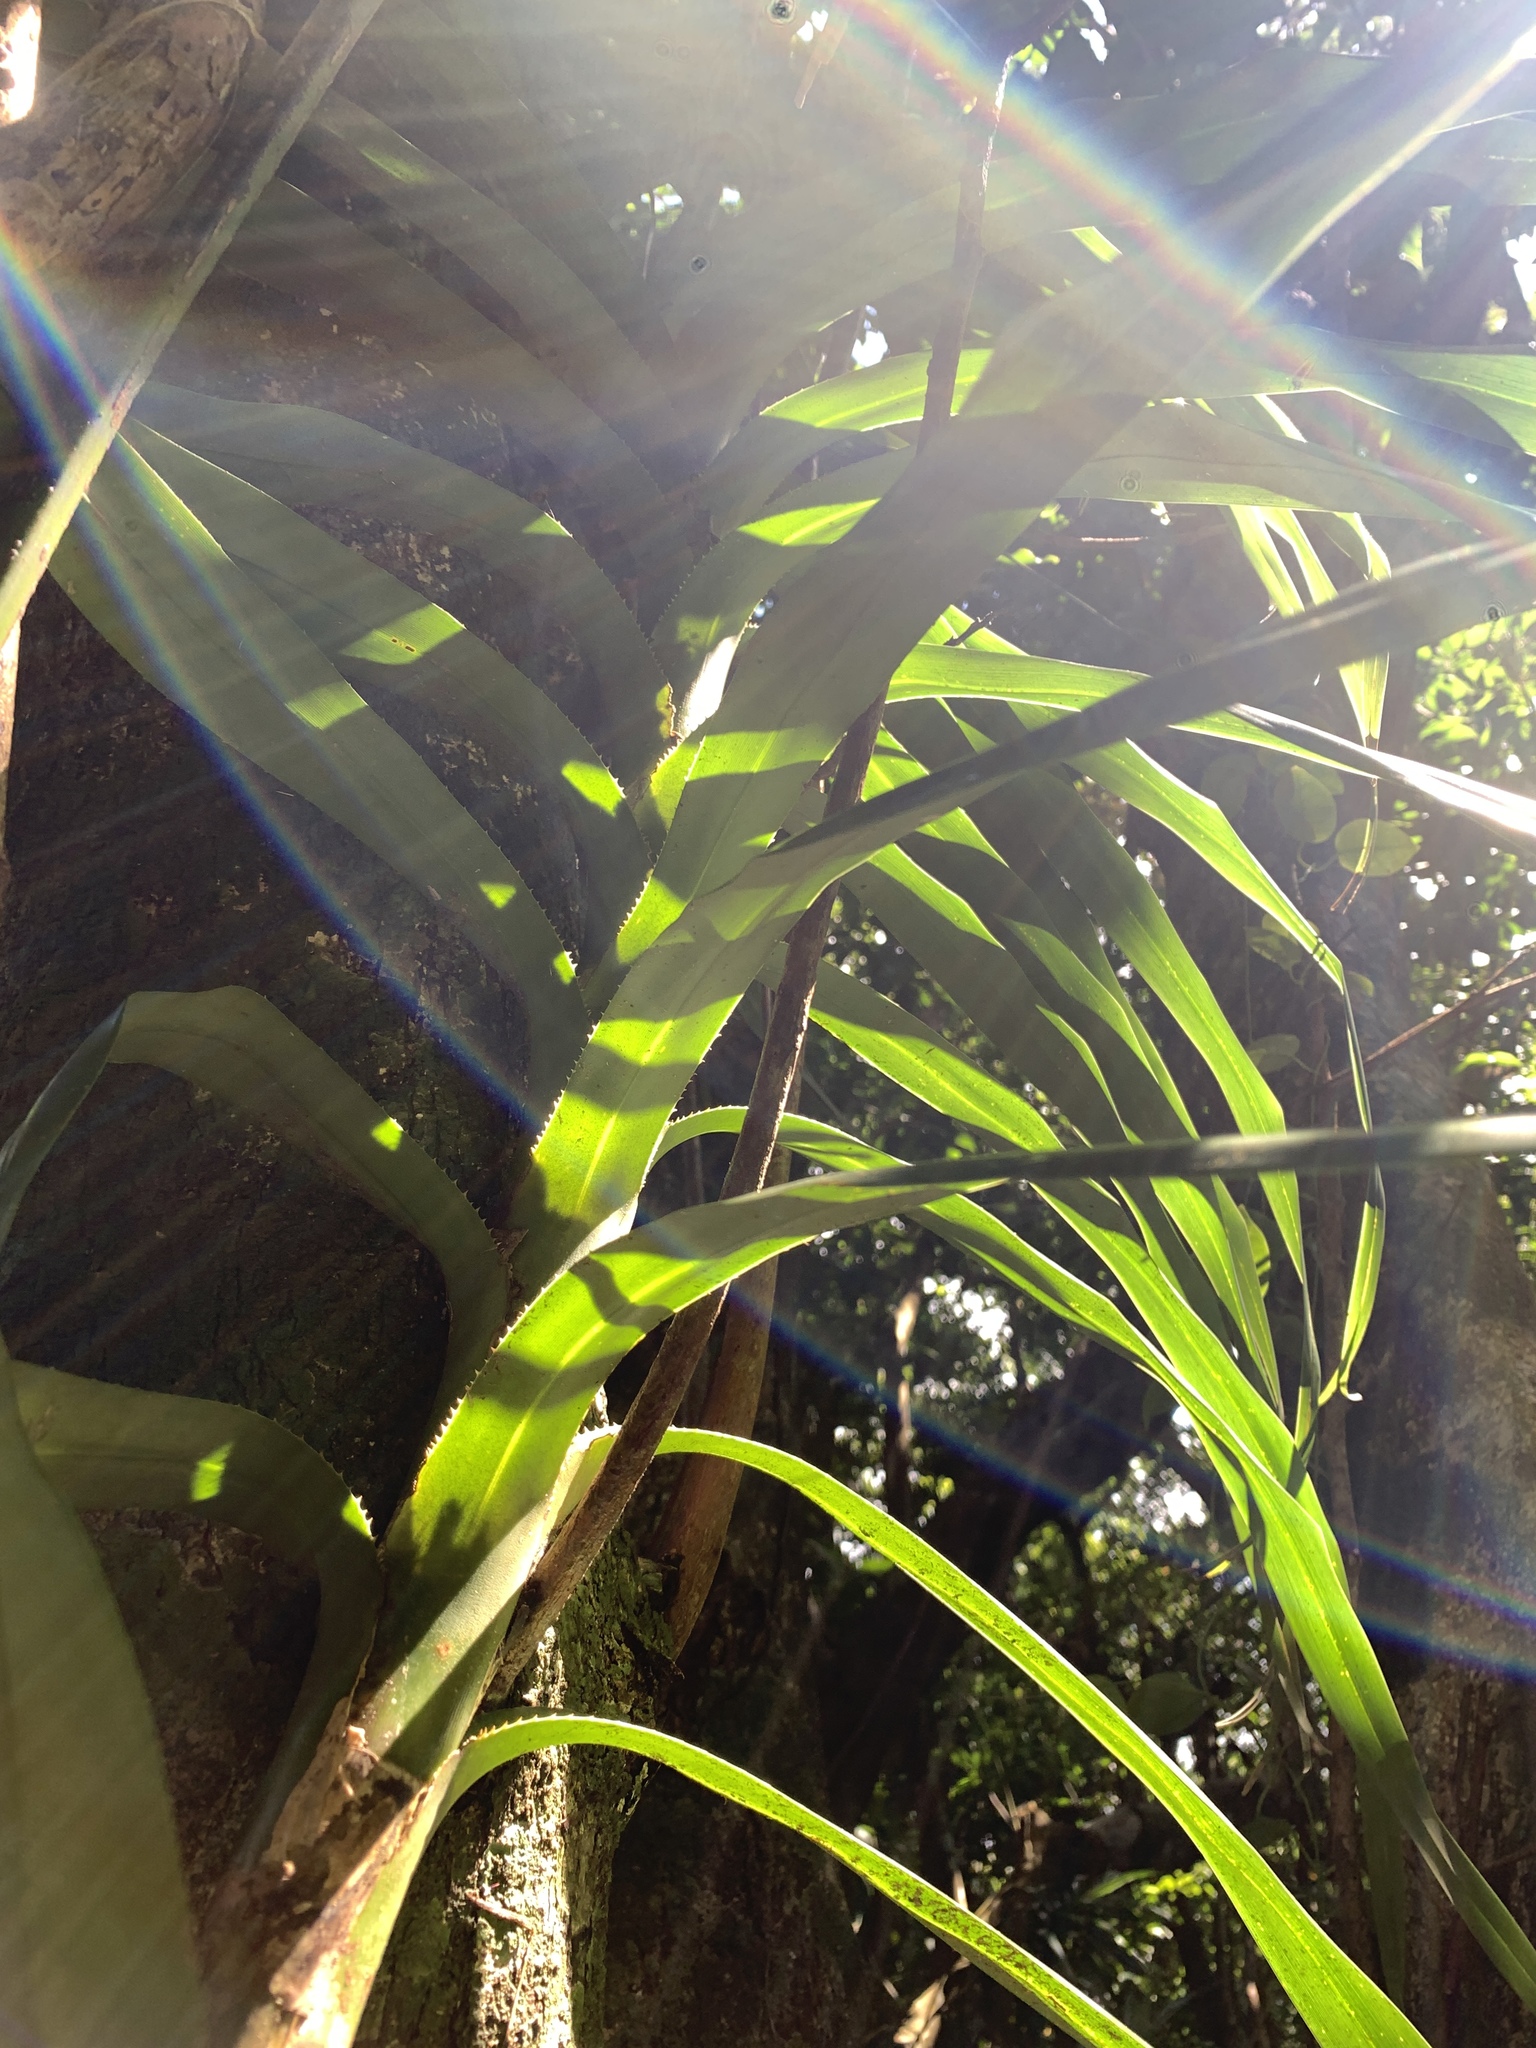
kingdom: Plantae
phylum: Tracheophyta
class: Liliopsida
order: Pandanales
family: Pandanaceae
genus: Freycinetia
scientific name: Freycinetia formosana
